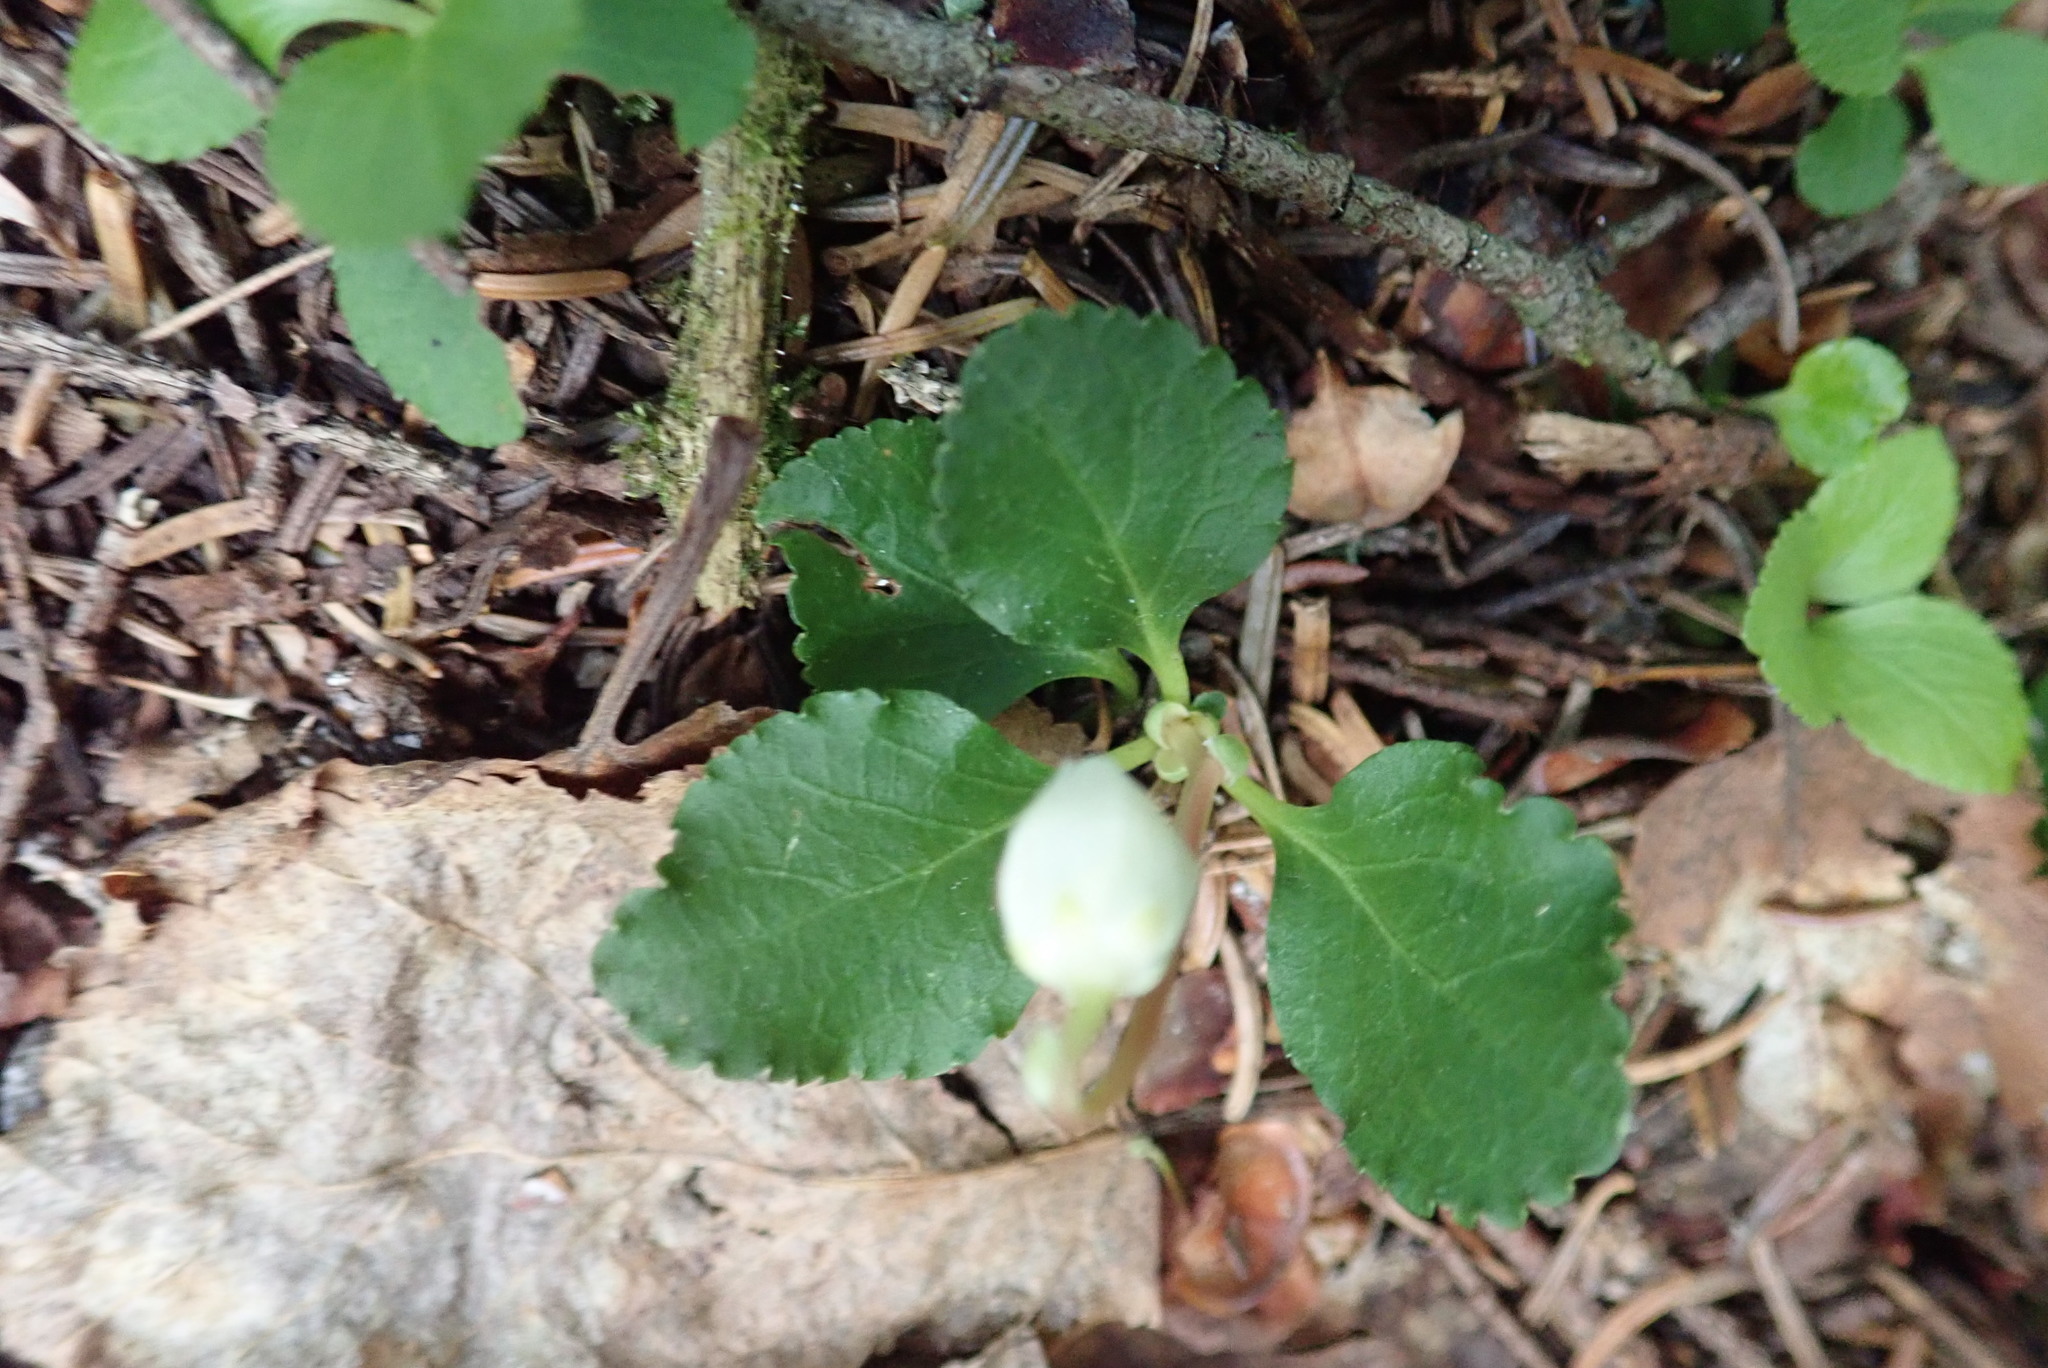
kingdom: Plantae
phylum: Tracheophyta
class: Magnoliopsida
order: Ericales
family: Ericaceae
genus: Moneses
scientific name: Moneses uniflora
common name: One-flowered wintergreen
